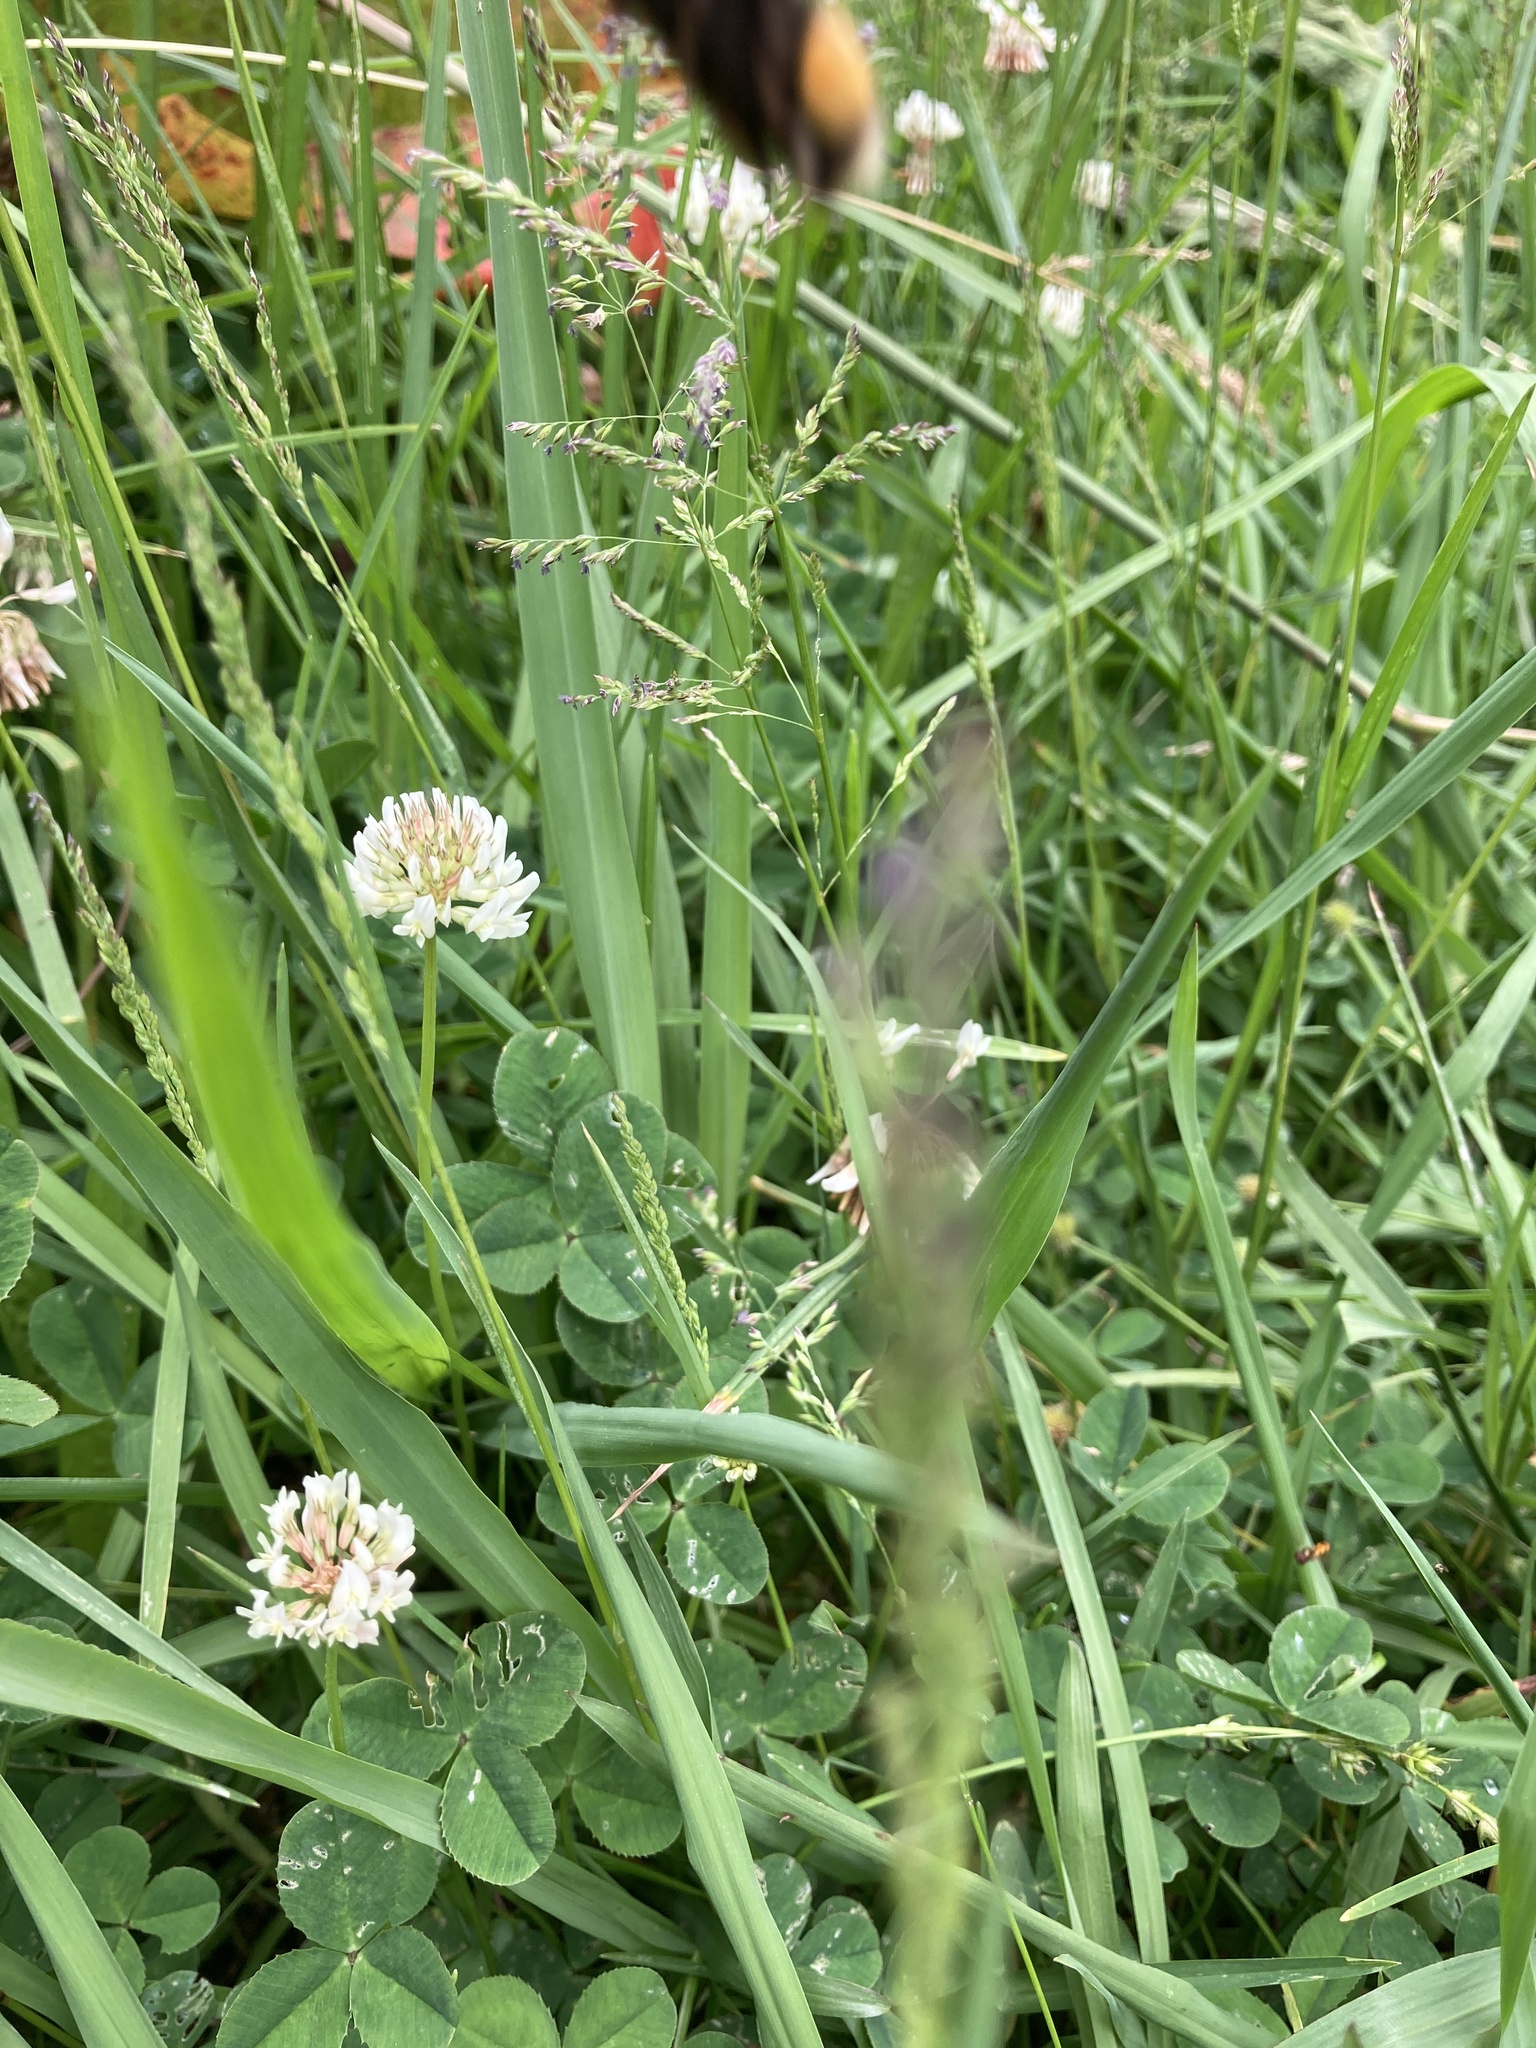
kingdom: Plantae
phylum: Tracheophyta
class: Magnoliopsida
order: Fabales
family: Fabaceae
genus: Trifolium
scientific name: Trifolium repens
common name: White clover
